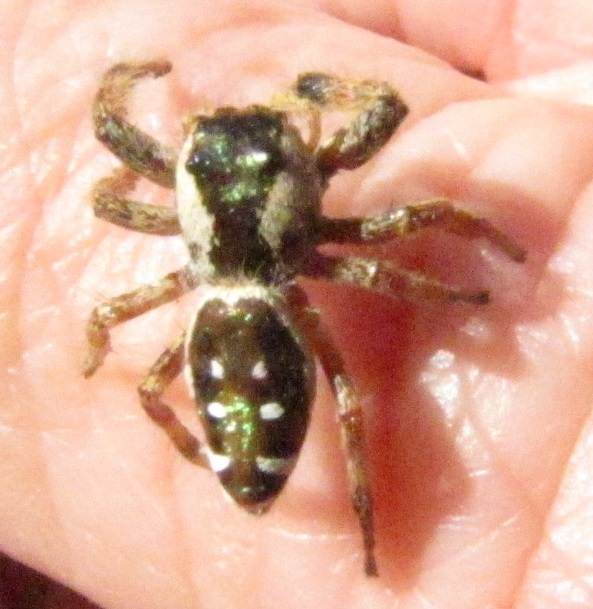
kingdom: Animalia
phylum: Arthropoda
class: Arachnida
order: Araneae
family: Salticidae
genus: Paraphidippus
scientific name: Paraphidippus aurantius
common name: Jumping spiders
